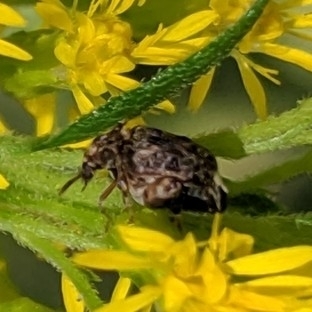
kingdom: Animalia
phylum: Arthropoda
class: Insecta
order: Coleoptera
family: Chrysomelidae
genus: Gibbobruchus
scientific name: Gibbobruchus mimus
